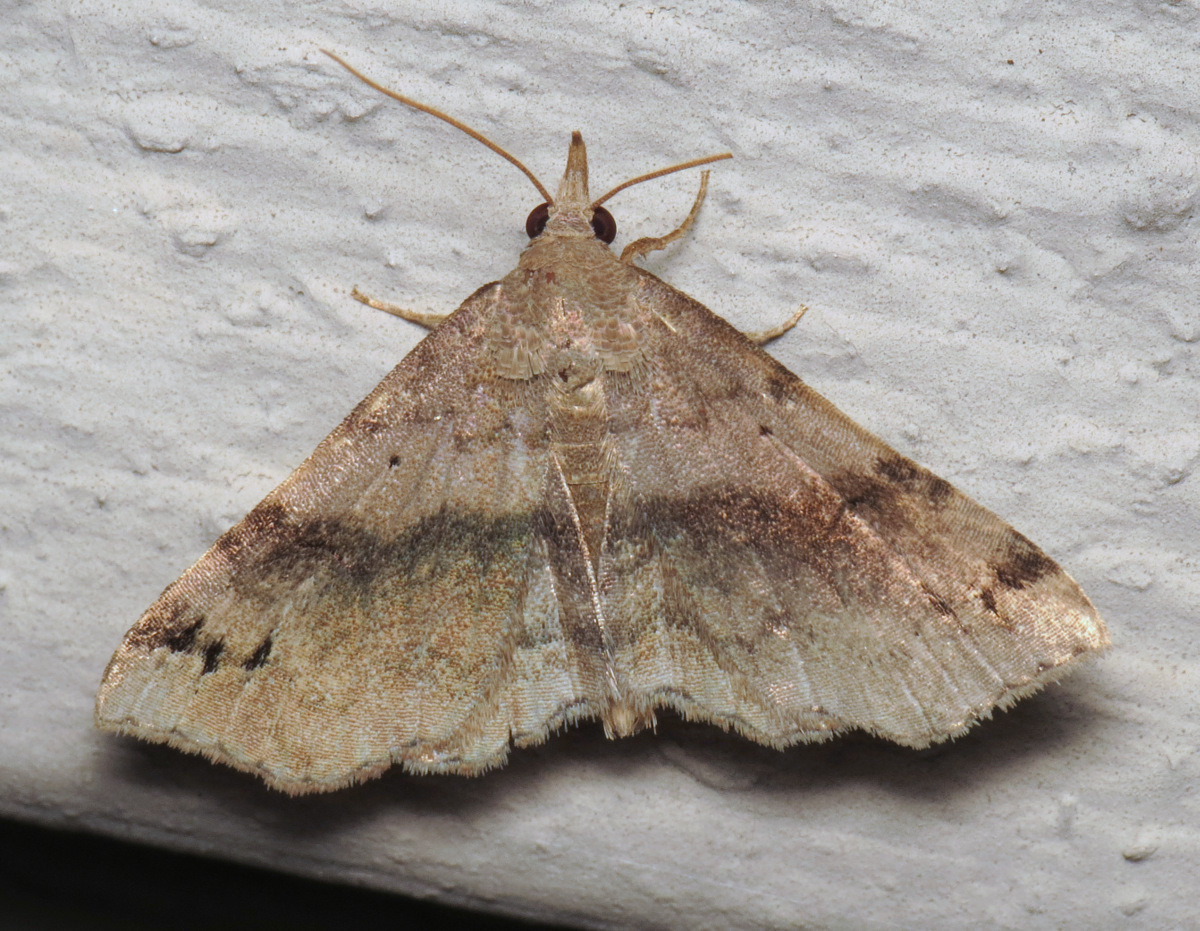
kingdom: Animalia
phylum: Arthropoda
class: Insecta
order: Lepidoptera
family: Erebidae
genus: Spargaloma
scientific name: Spargaloma sexpunctata
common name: Six-spotted gray
